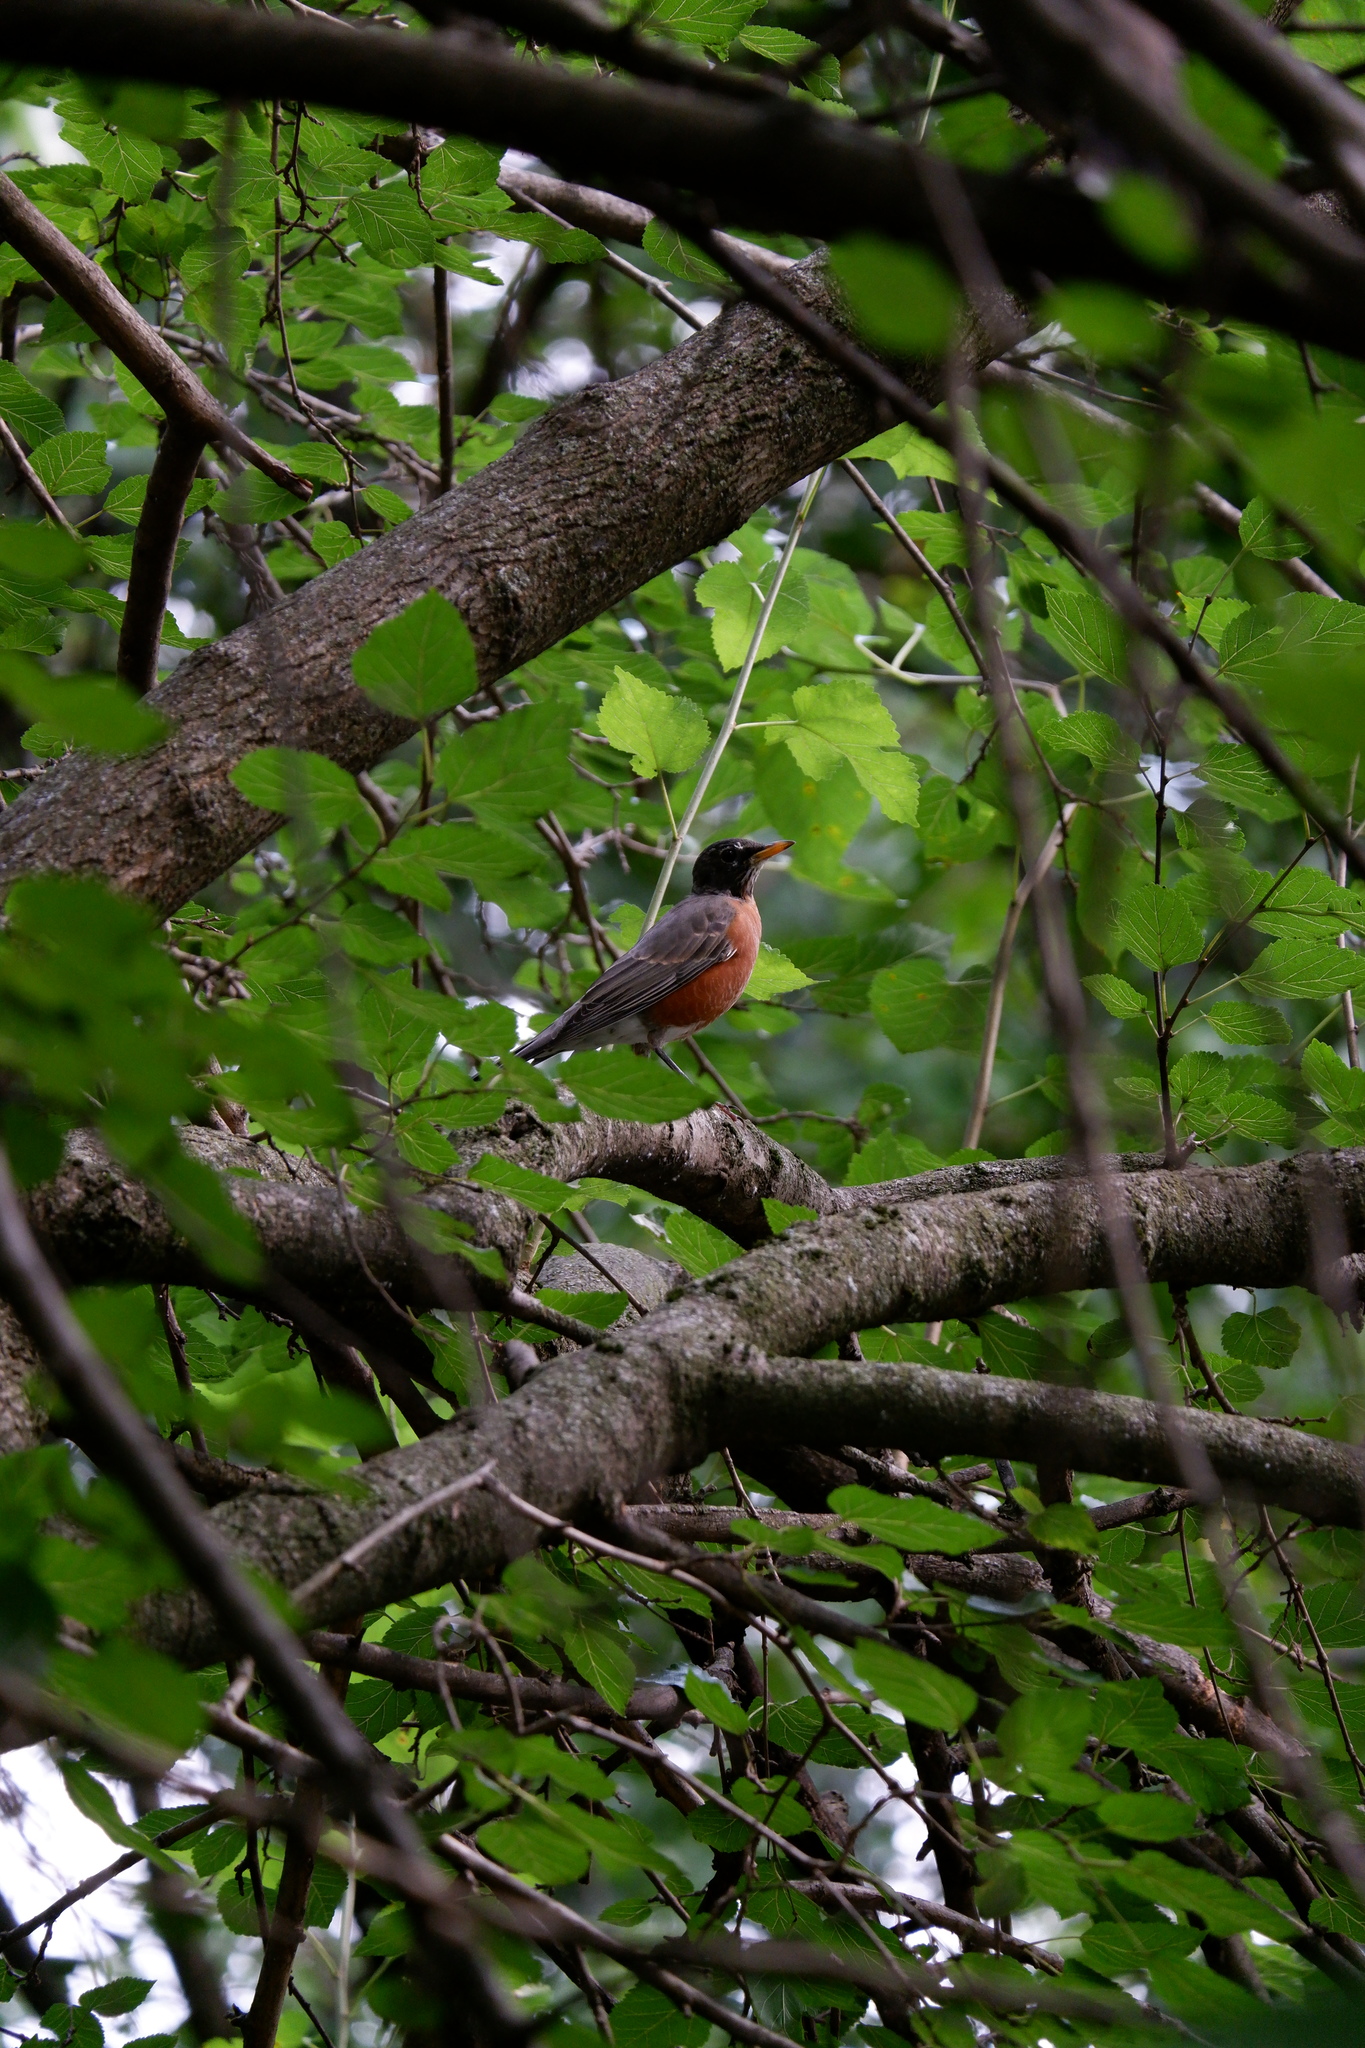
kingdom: Animalia
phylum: Chordata
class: Aves
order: Passeriformes
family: Turdidae
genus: Turdus
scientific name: Turdus migratorius
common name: American robin
